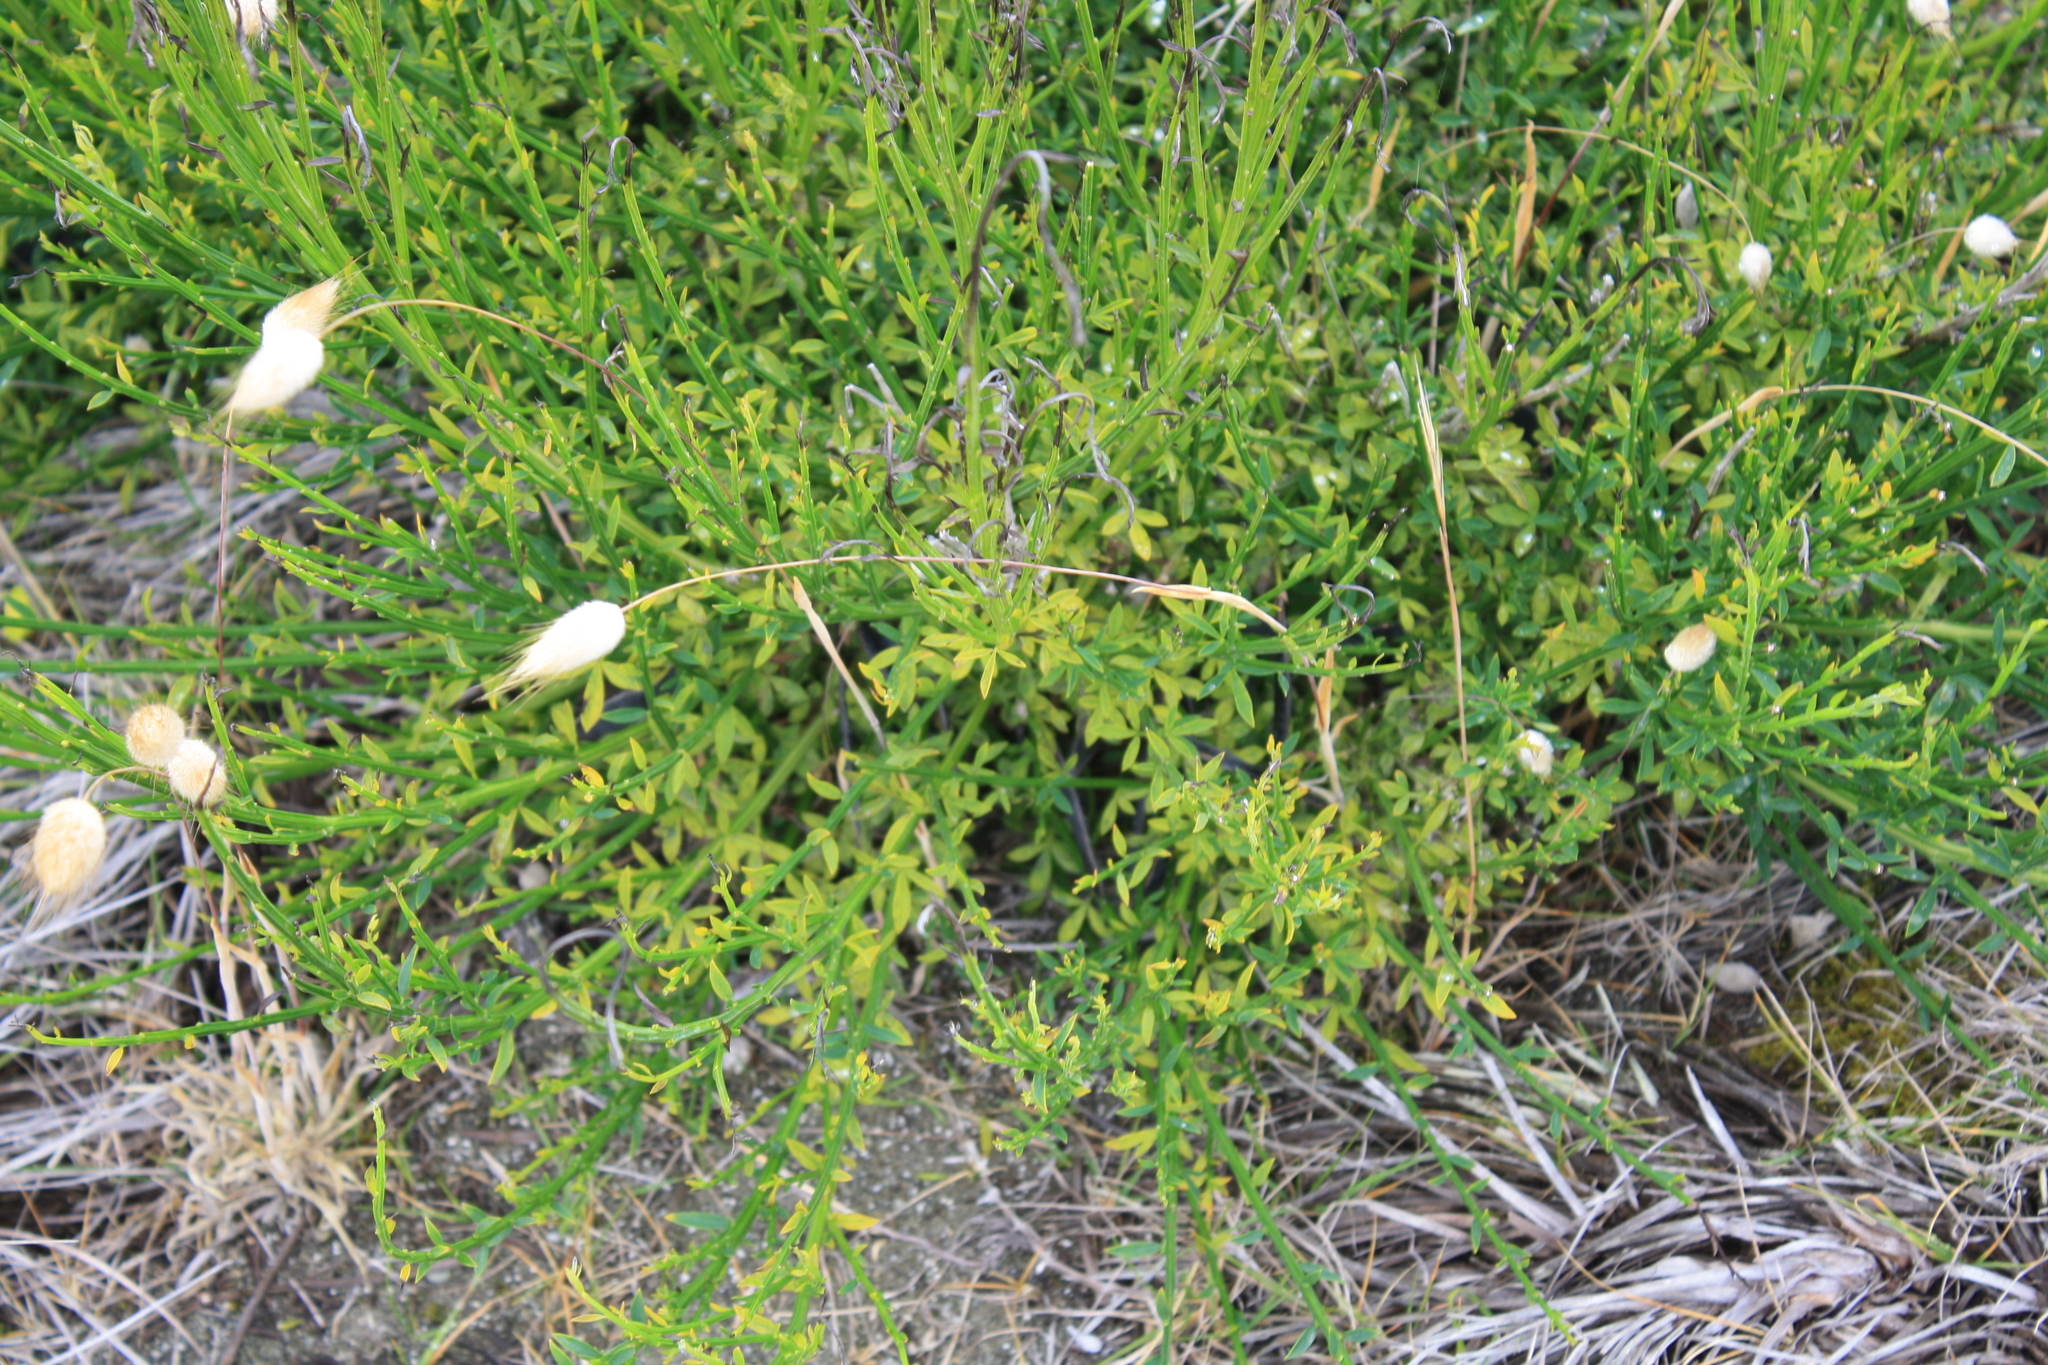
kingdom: Plantae
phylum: Tracheophyta
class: Magnoliopsida
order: Fabales
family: Fabaceae
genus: Cytisus
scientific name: Cytisus scoparius
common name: Scotch broom
